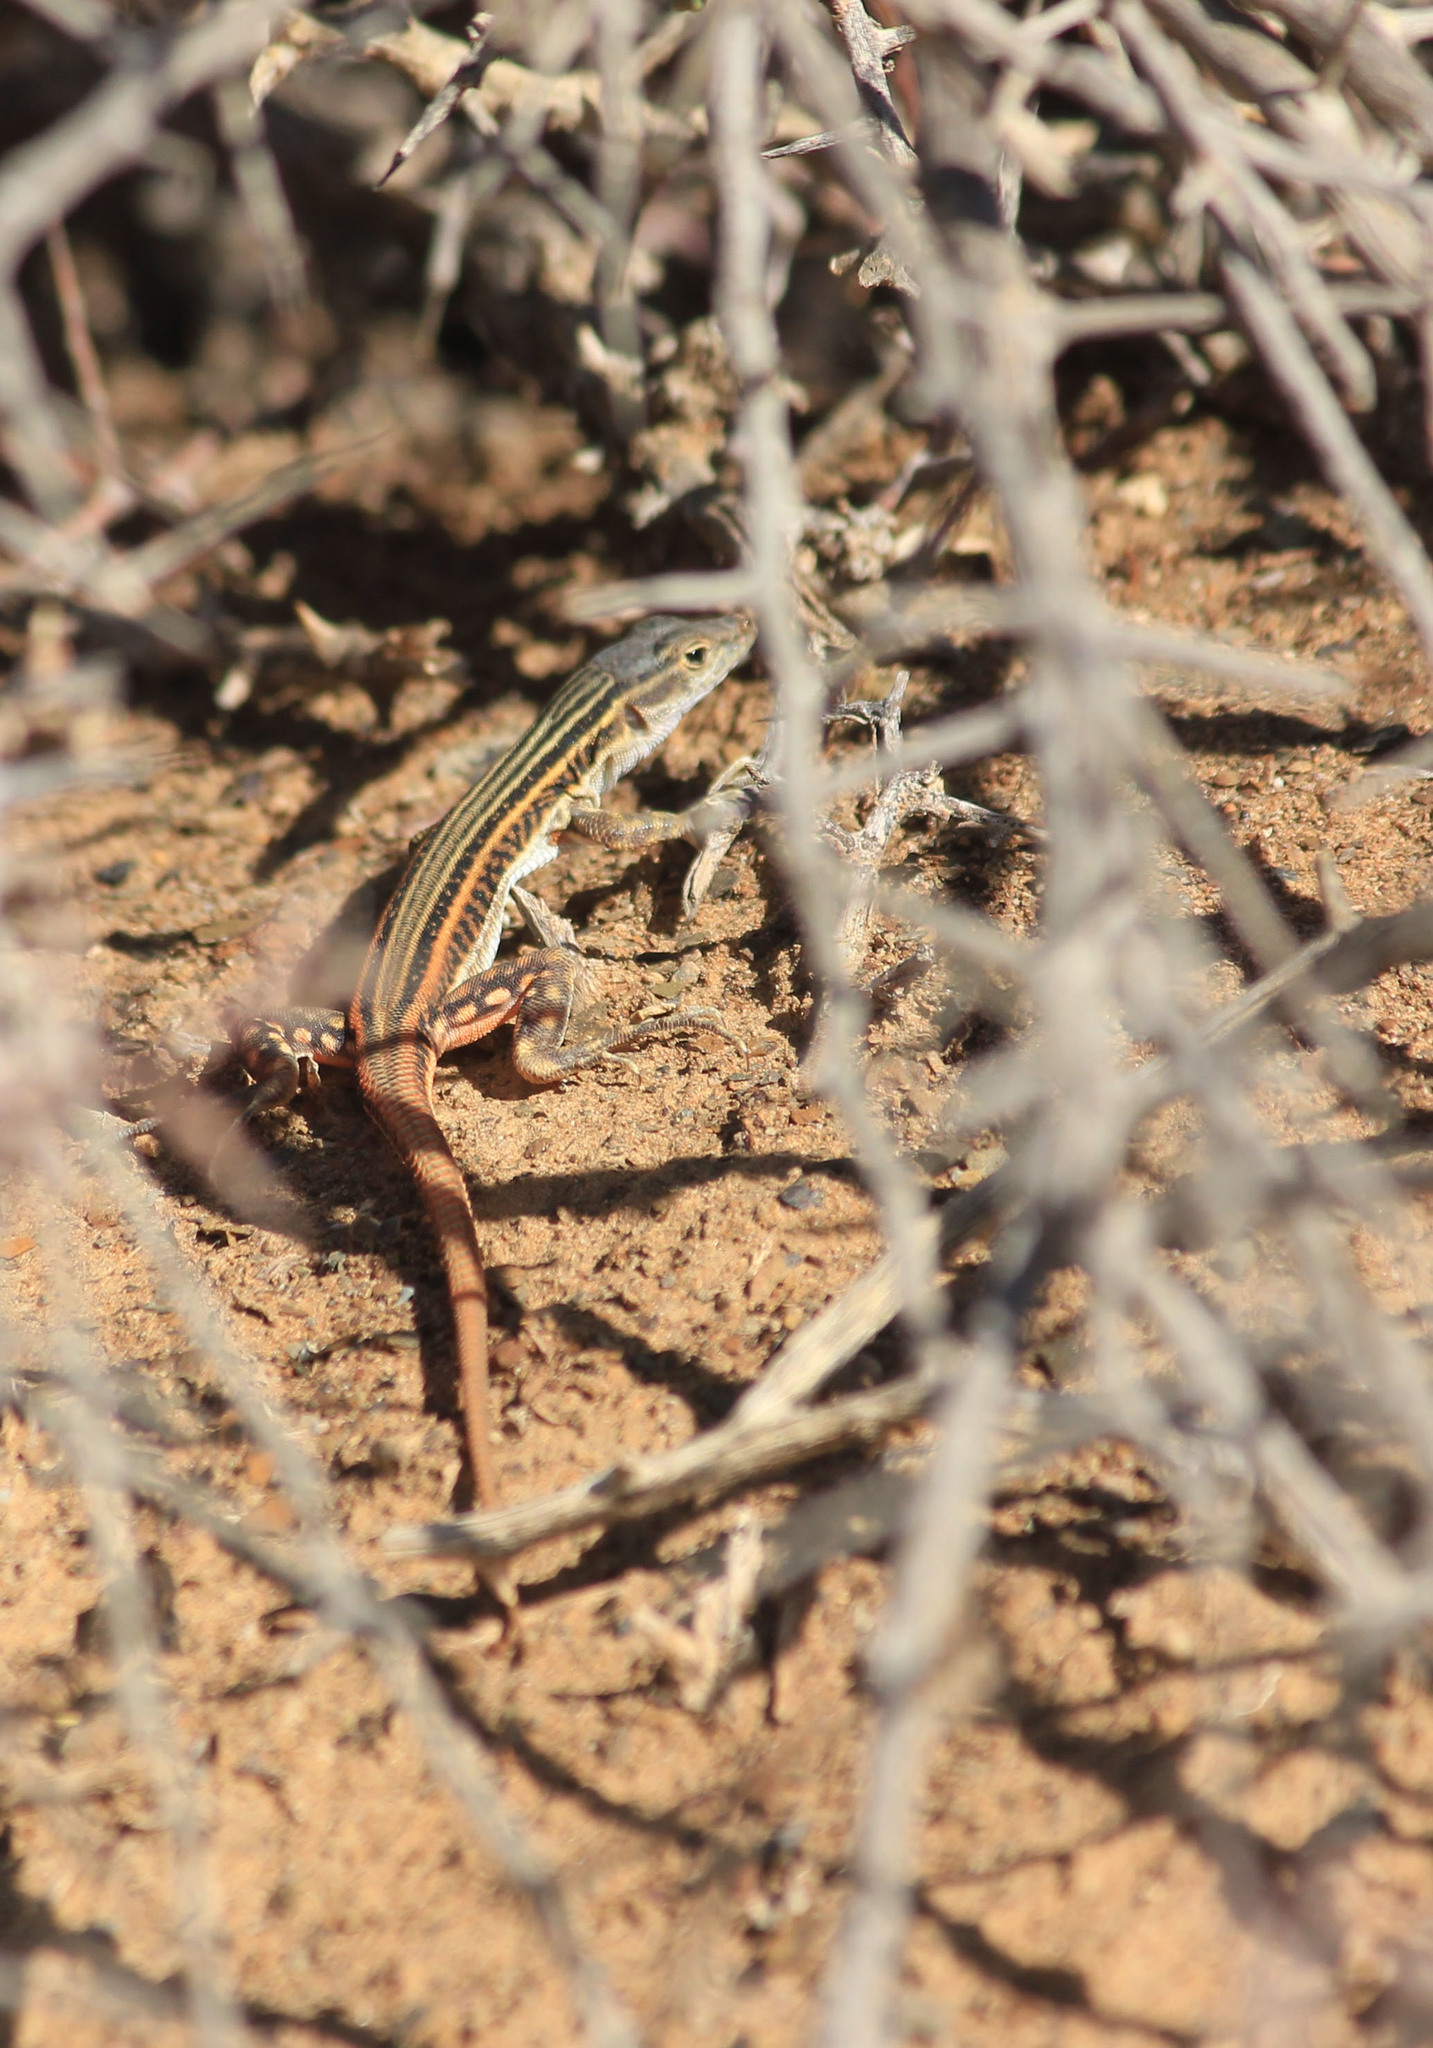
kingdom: Animalia
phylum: Chordata
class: Squamata
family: Lacertidae
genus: Pedioplanis
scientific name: Pedioplanis laticeps
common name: Karoo sand lizard
